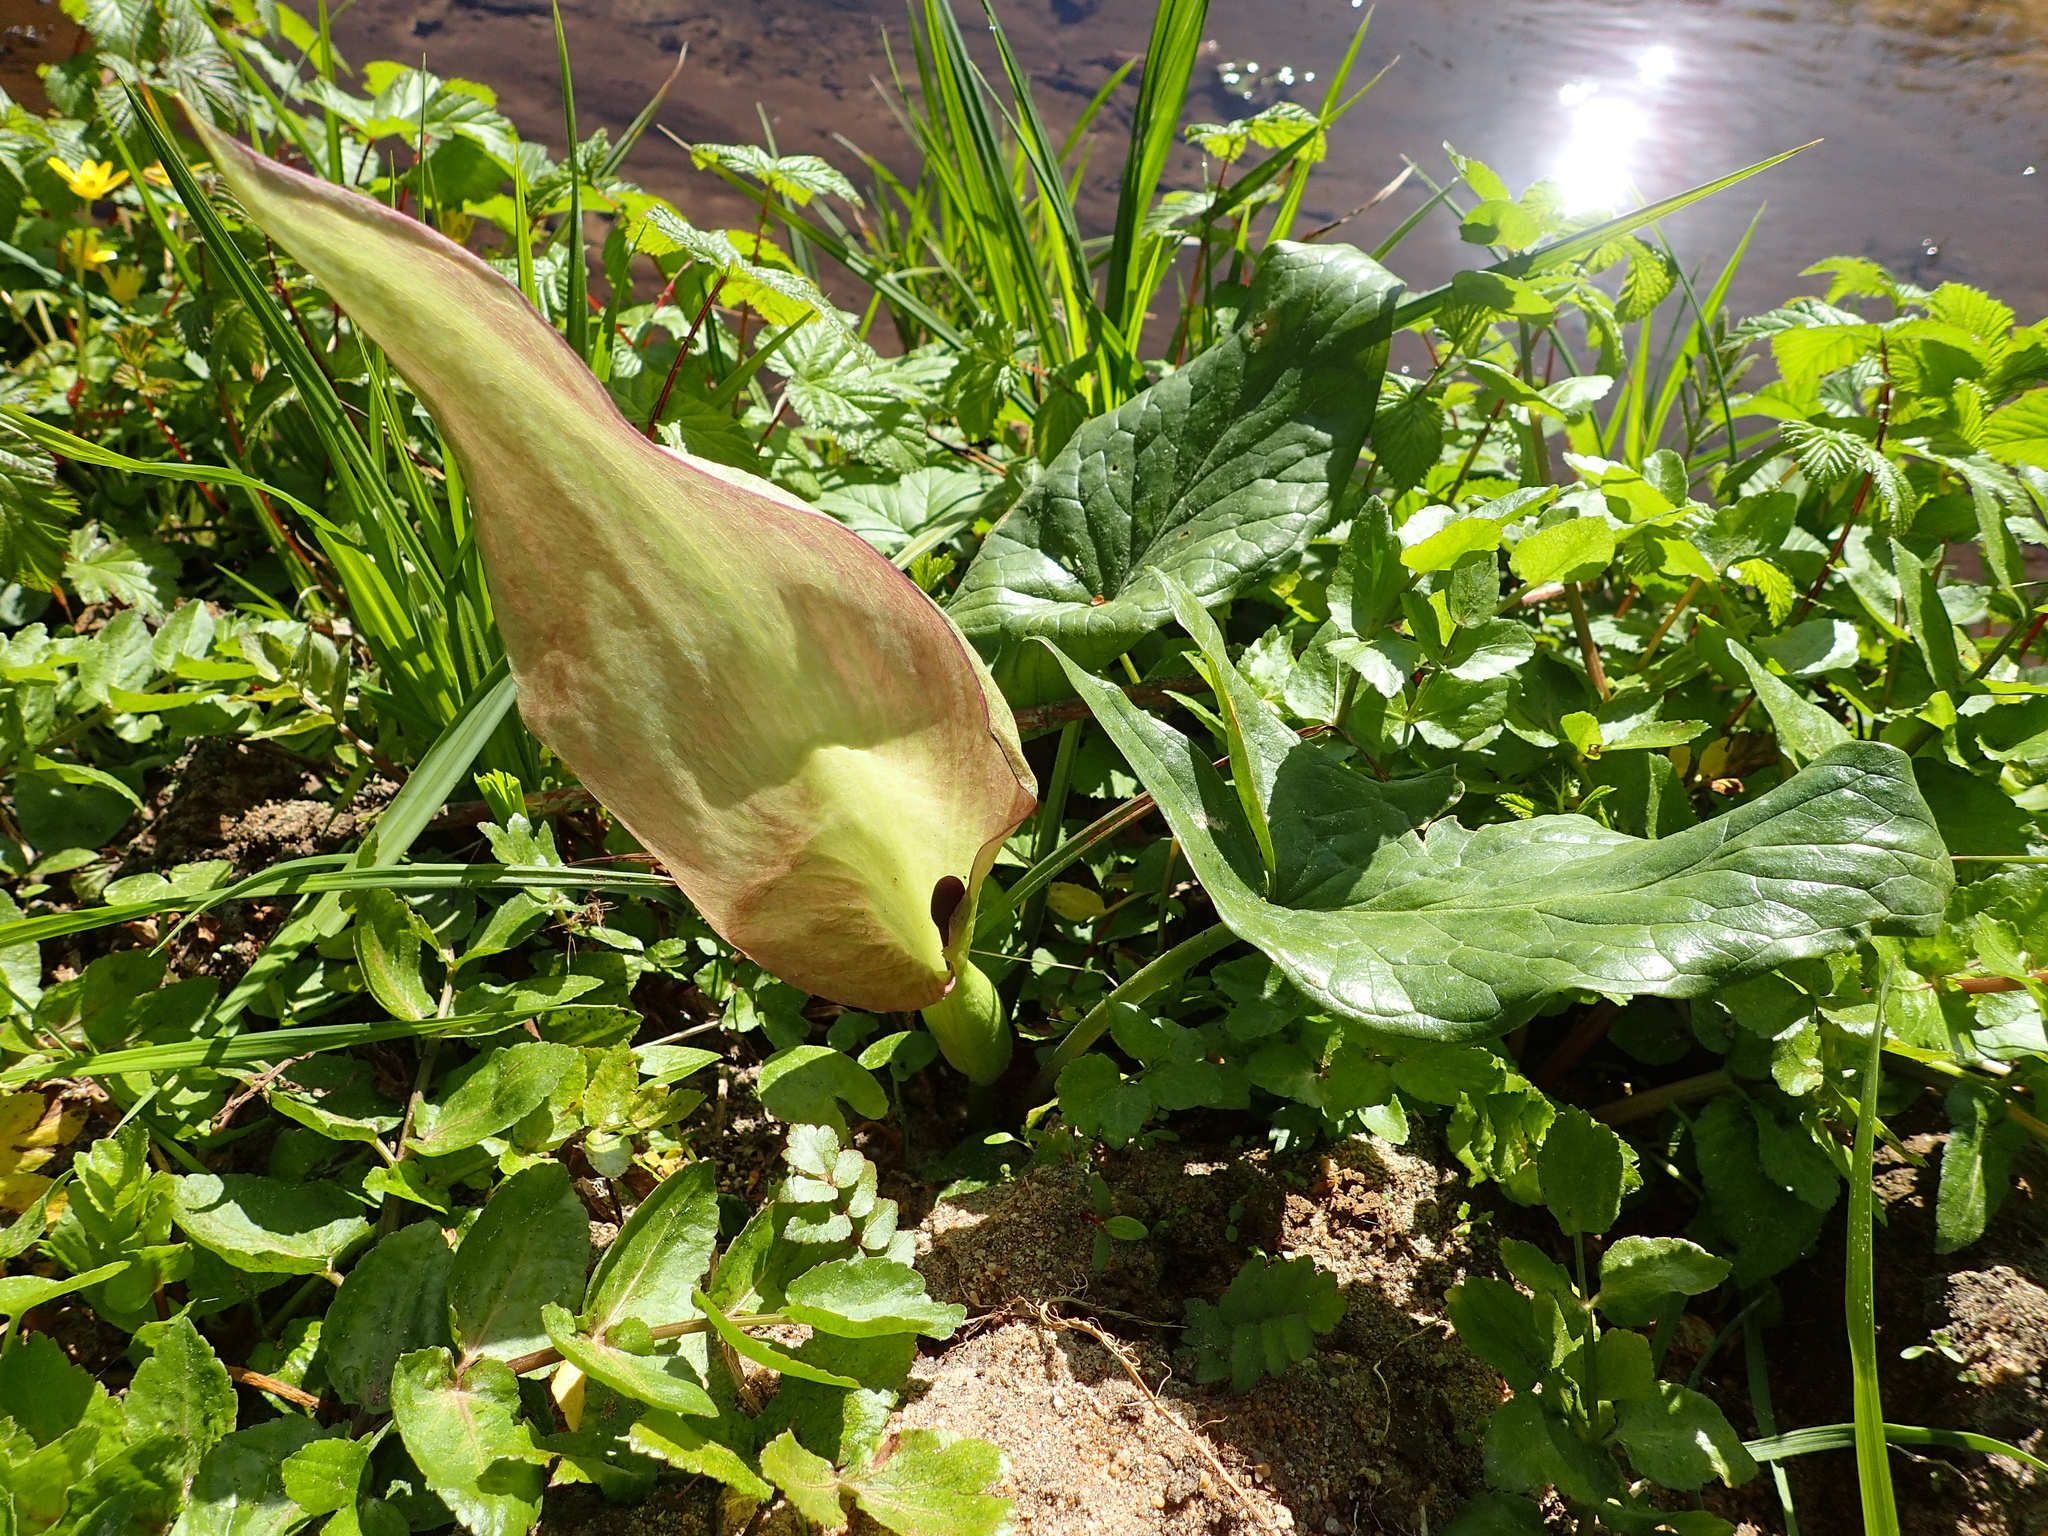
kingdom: Plantae
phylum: Tracheophyta
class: Liliopsida
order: Alismatales
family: Araceae
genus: Arum
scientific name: Arum maculatum
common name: Lords-and-ladies
